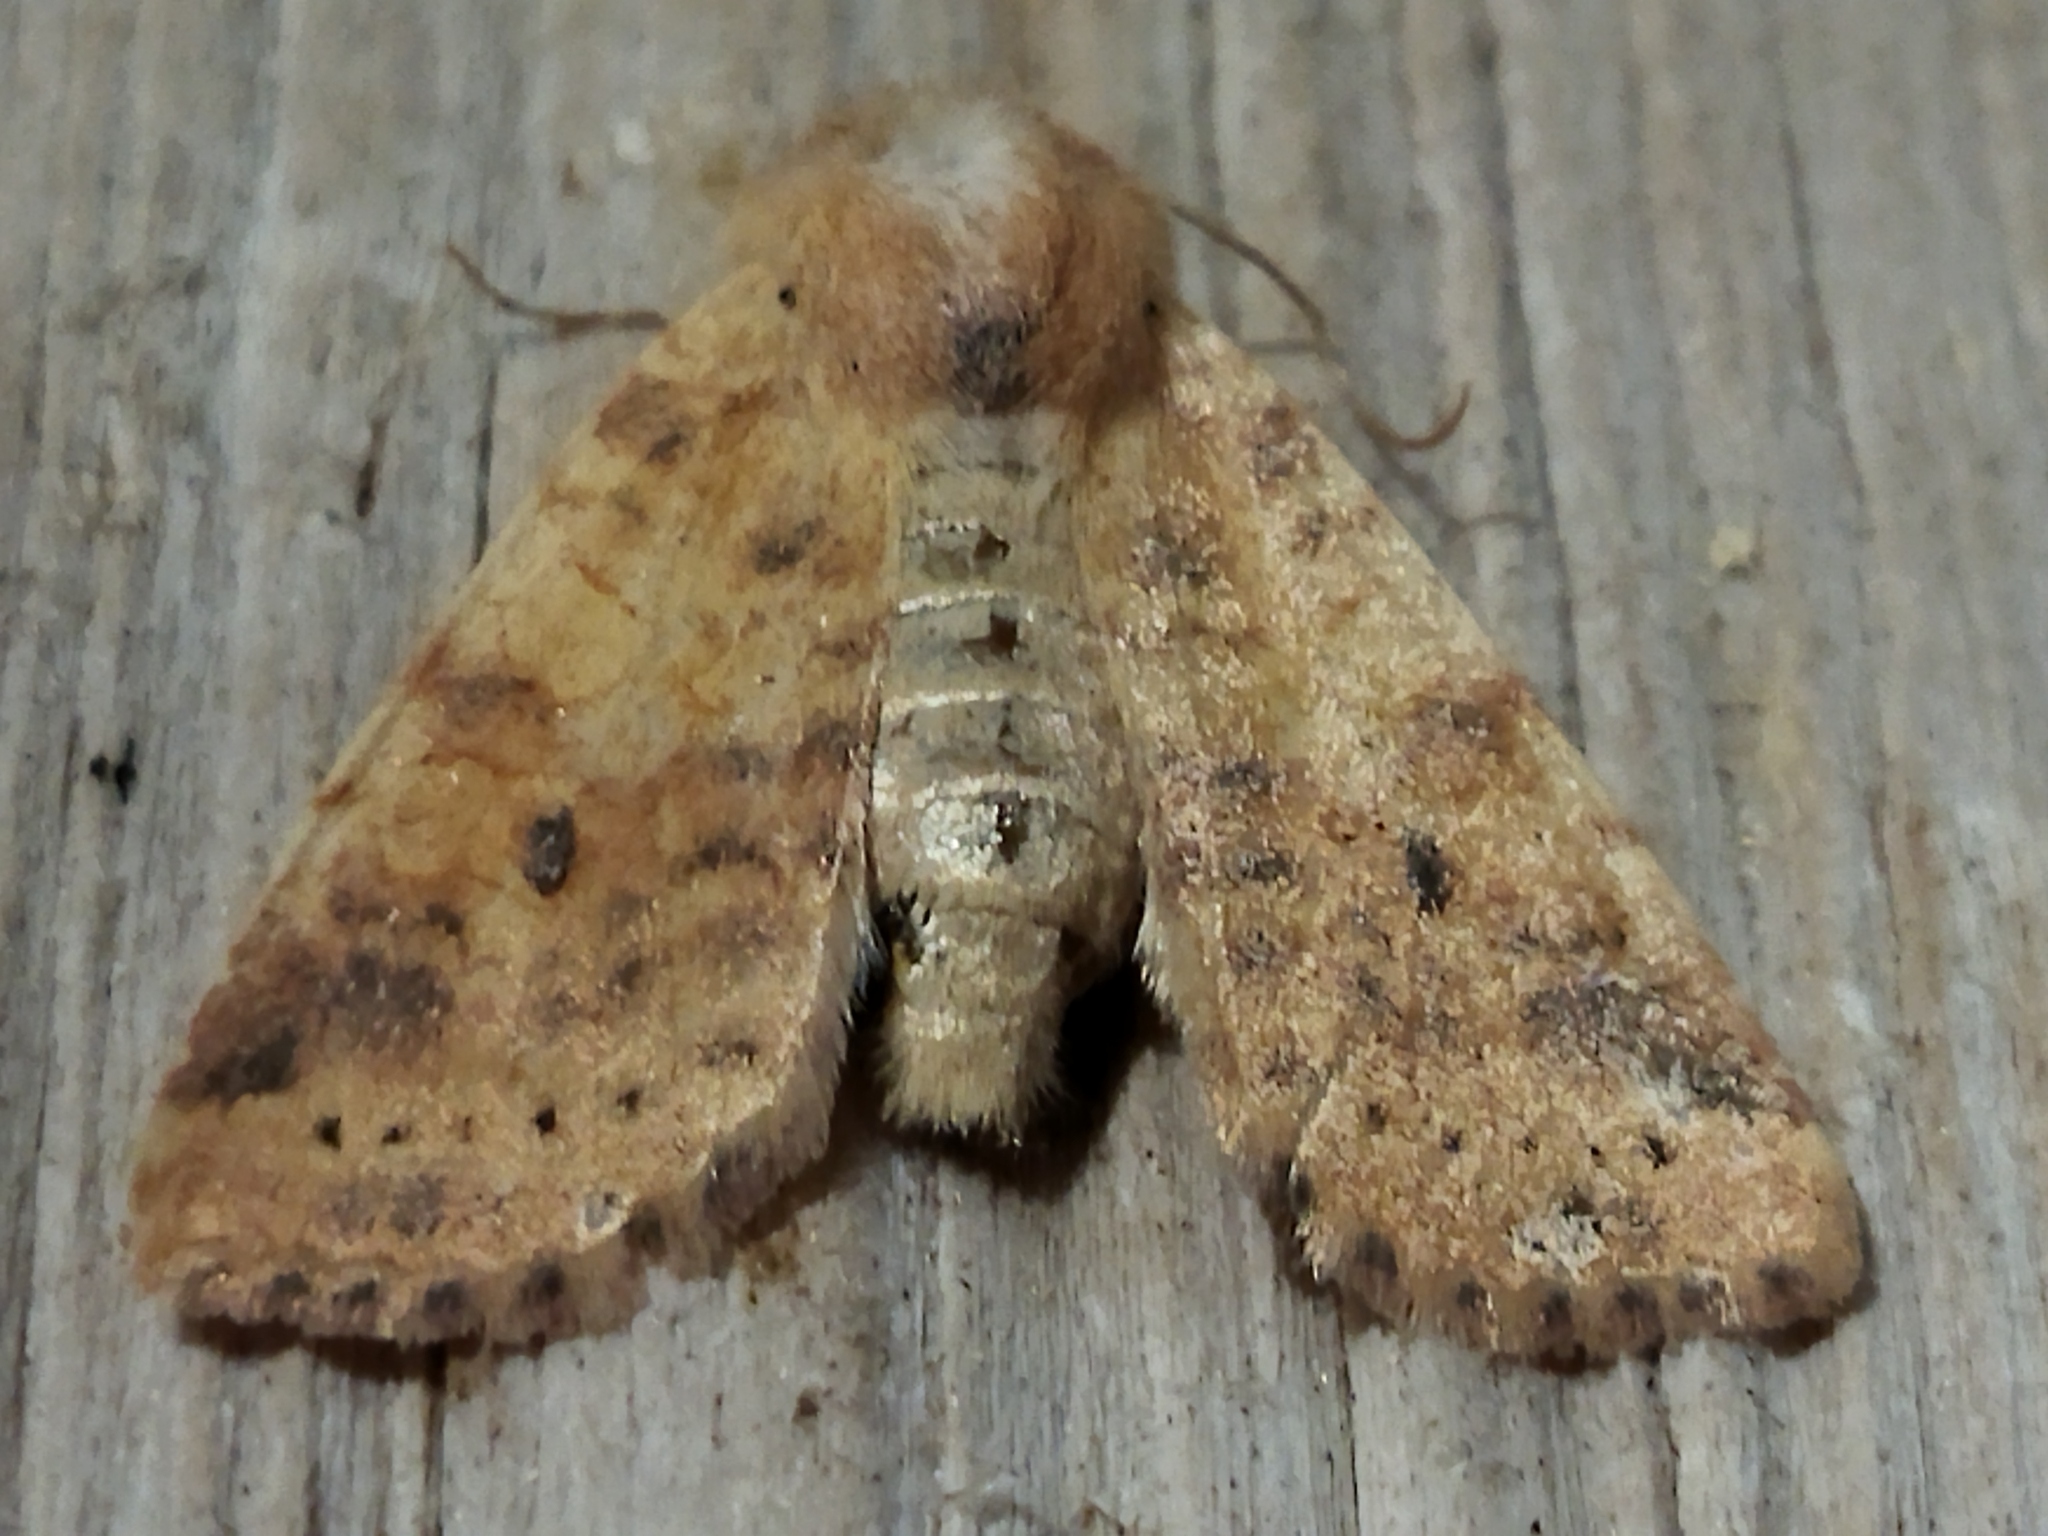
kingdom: Animalia
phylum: Arthropoda
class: Insecta
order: Lepidoptera
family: Noctuidae
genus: Xanthia
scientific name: Xanthia gilvago
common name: Dusky-lemon sallow
